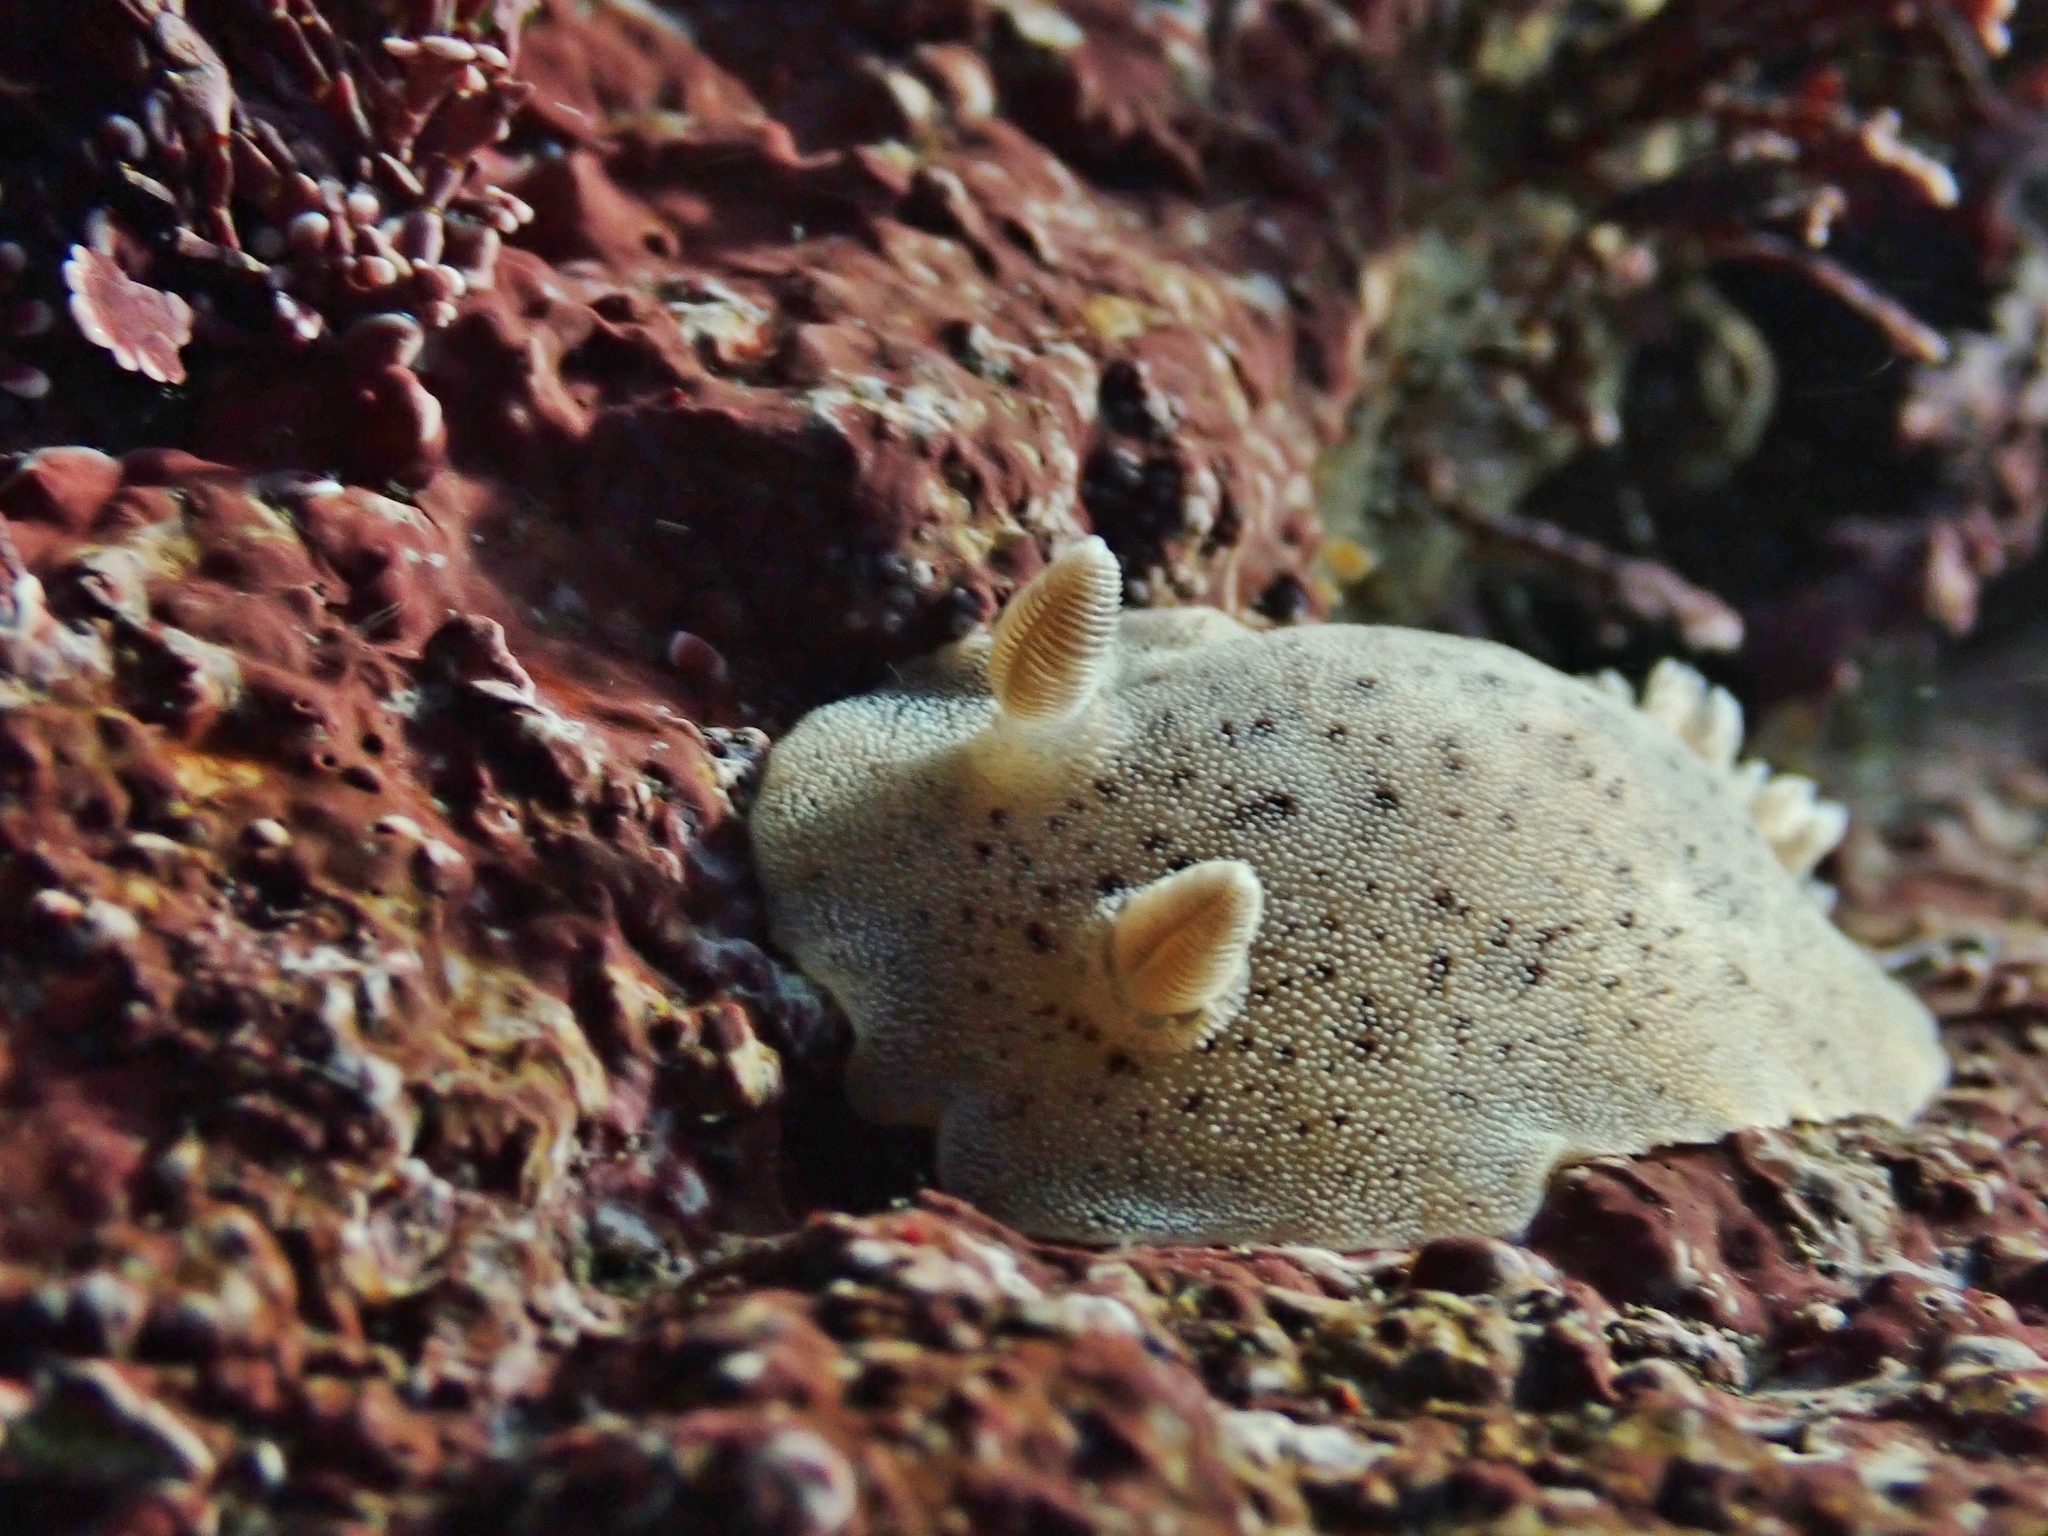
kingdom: Animalia
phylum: Mollusca
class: Gastropoda
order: Nudibranchia
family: Discodorididae
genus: Alloiodoris
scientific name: Alloiodoris lanuginata
